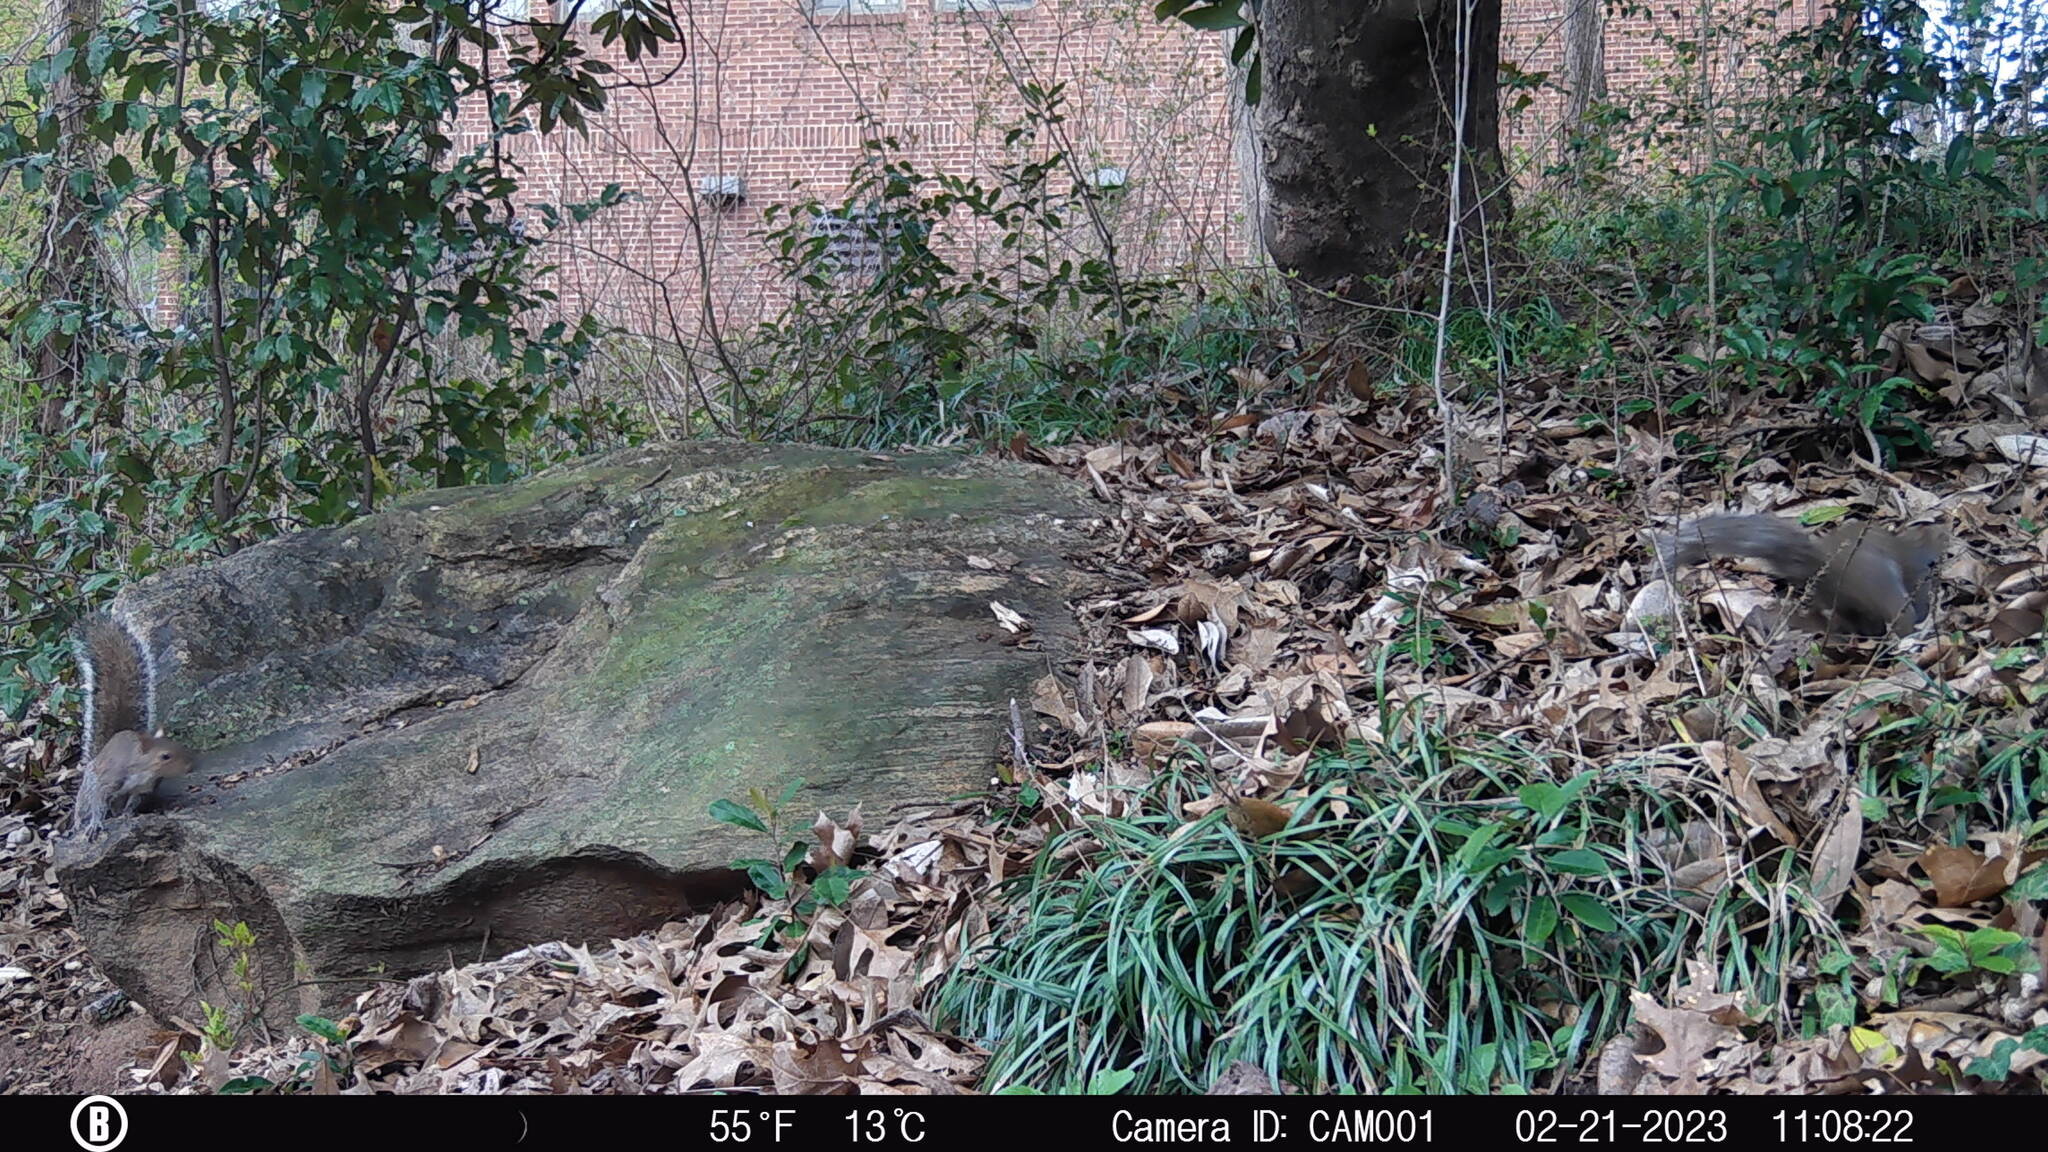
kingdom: Animalia
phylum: Chordata
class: Mammalia
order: Rodentia
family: Sciuridae
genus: Sciurus
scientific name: Sciurus carolinensis
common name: Eastern gray squirrel
